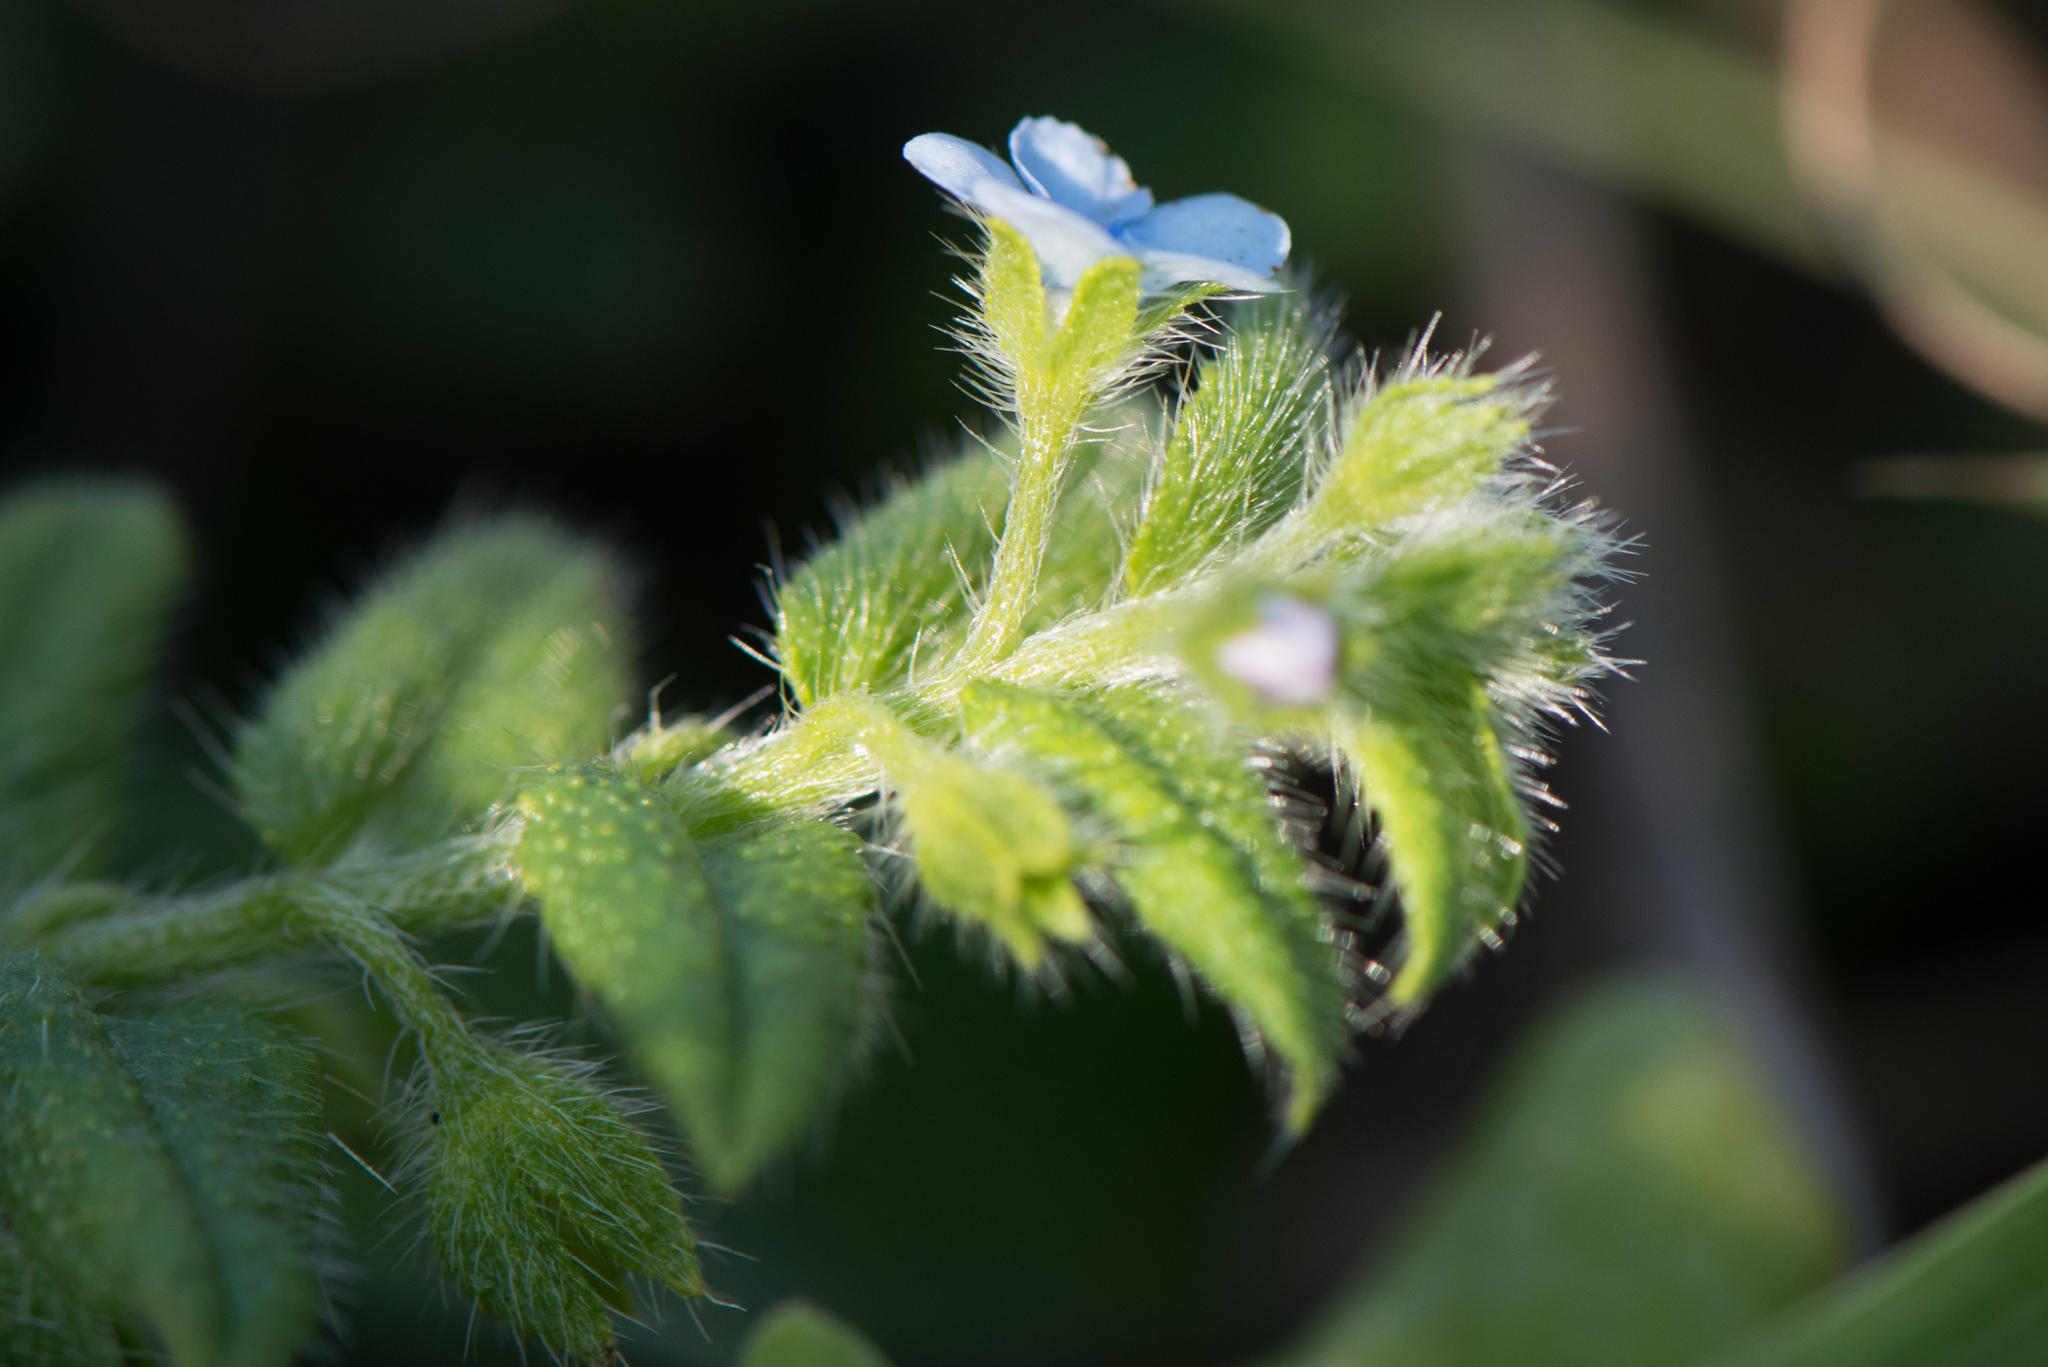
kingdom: Plantae
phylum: Tracheophyta
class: Magnoliopsida
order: Boraginales
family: Boraginaceae
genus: Thyrocarpus
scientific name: Thyrocarpus sampsonii
